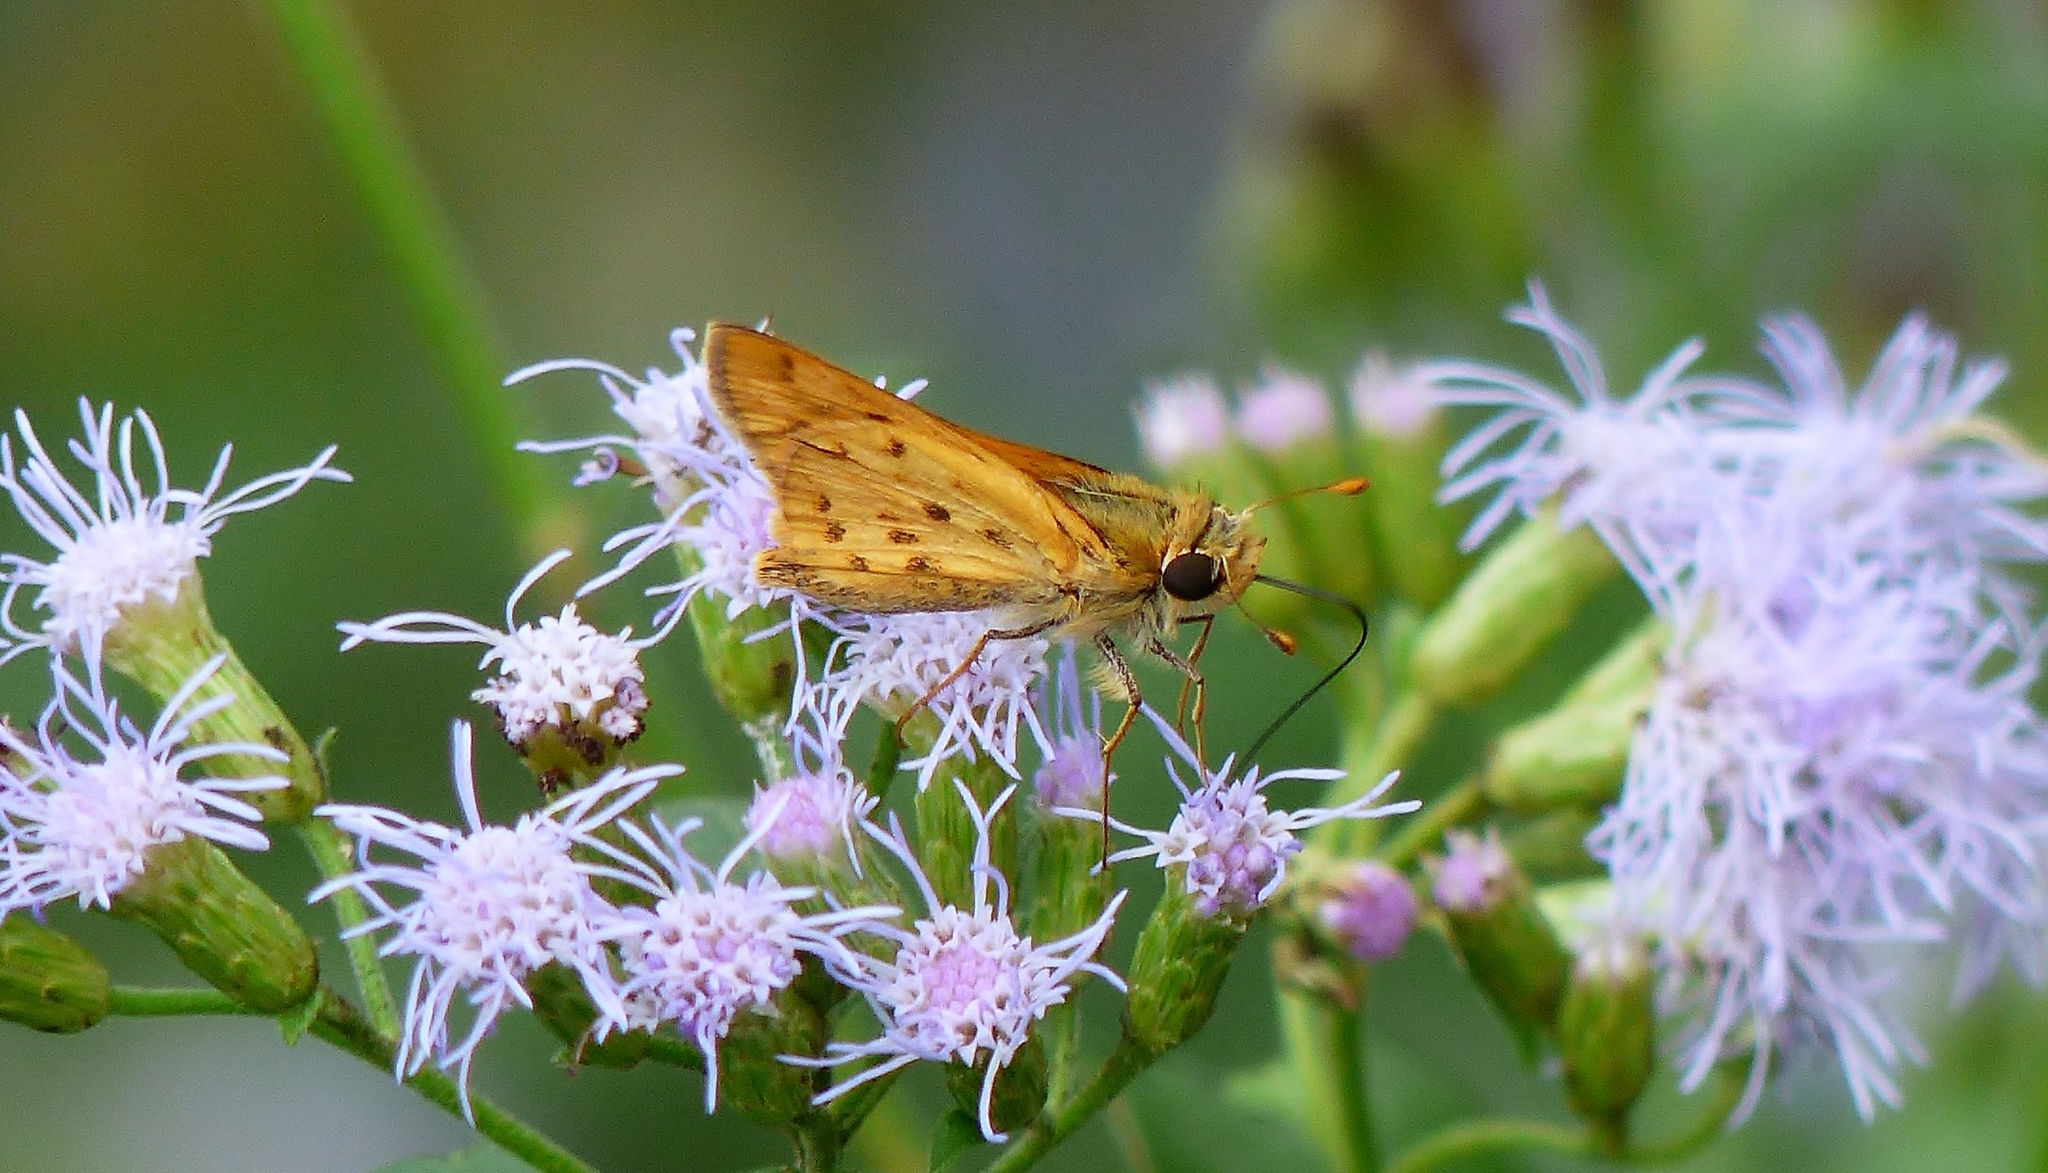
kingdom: Animalia
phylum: Arthropoda
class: Insecta
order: Lepidoptera
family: Hesperiidae
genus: Hylephila
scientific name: Hylephila phyleus
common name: Fiery skipper
